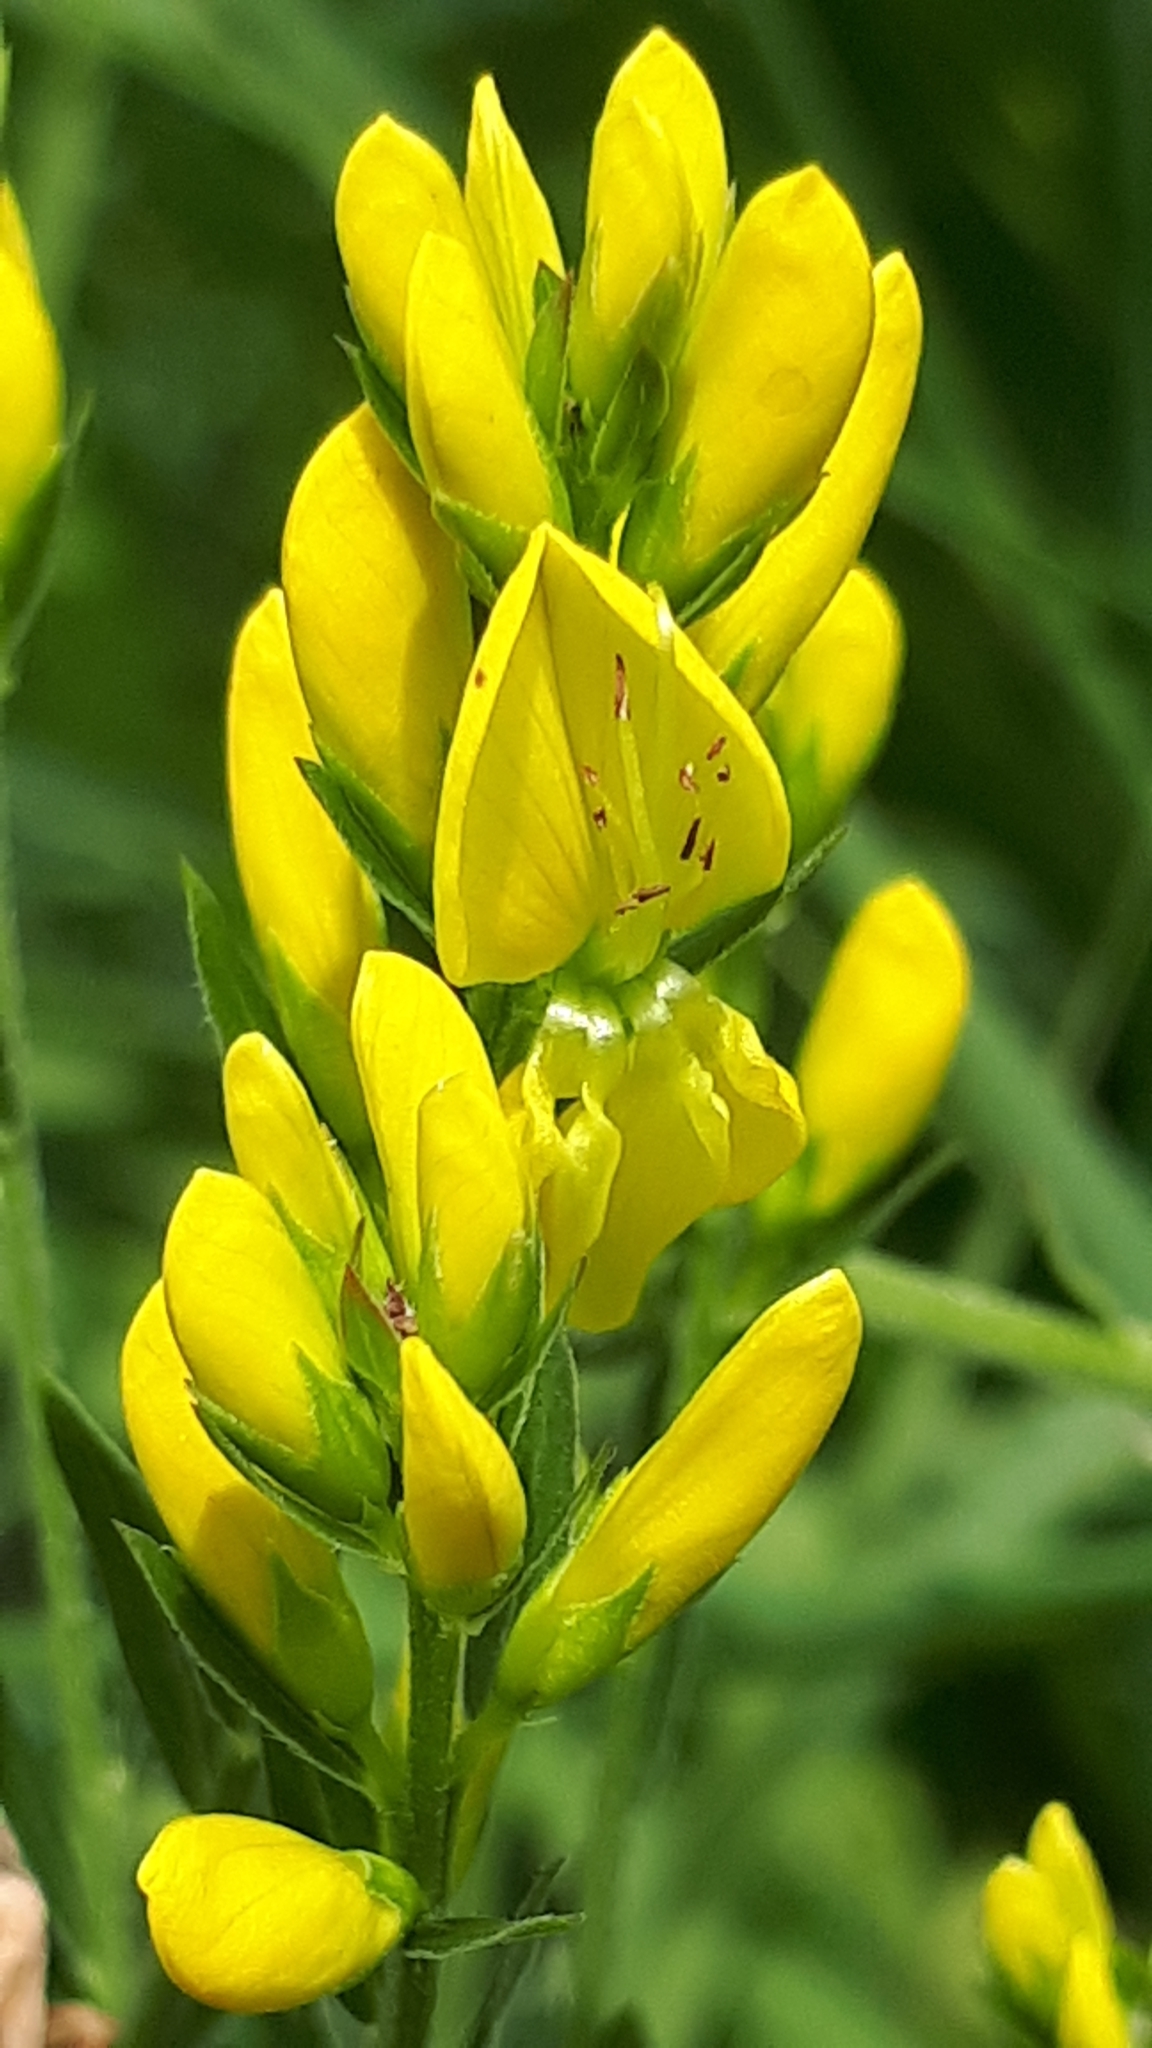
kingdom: Plantae
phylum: Tracheophyta
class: Magnoliopsida
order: Fabales
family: Fabaceae
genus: Genista
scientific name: Genista tinctoria
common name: Dyer's greenweed
